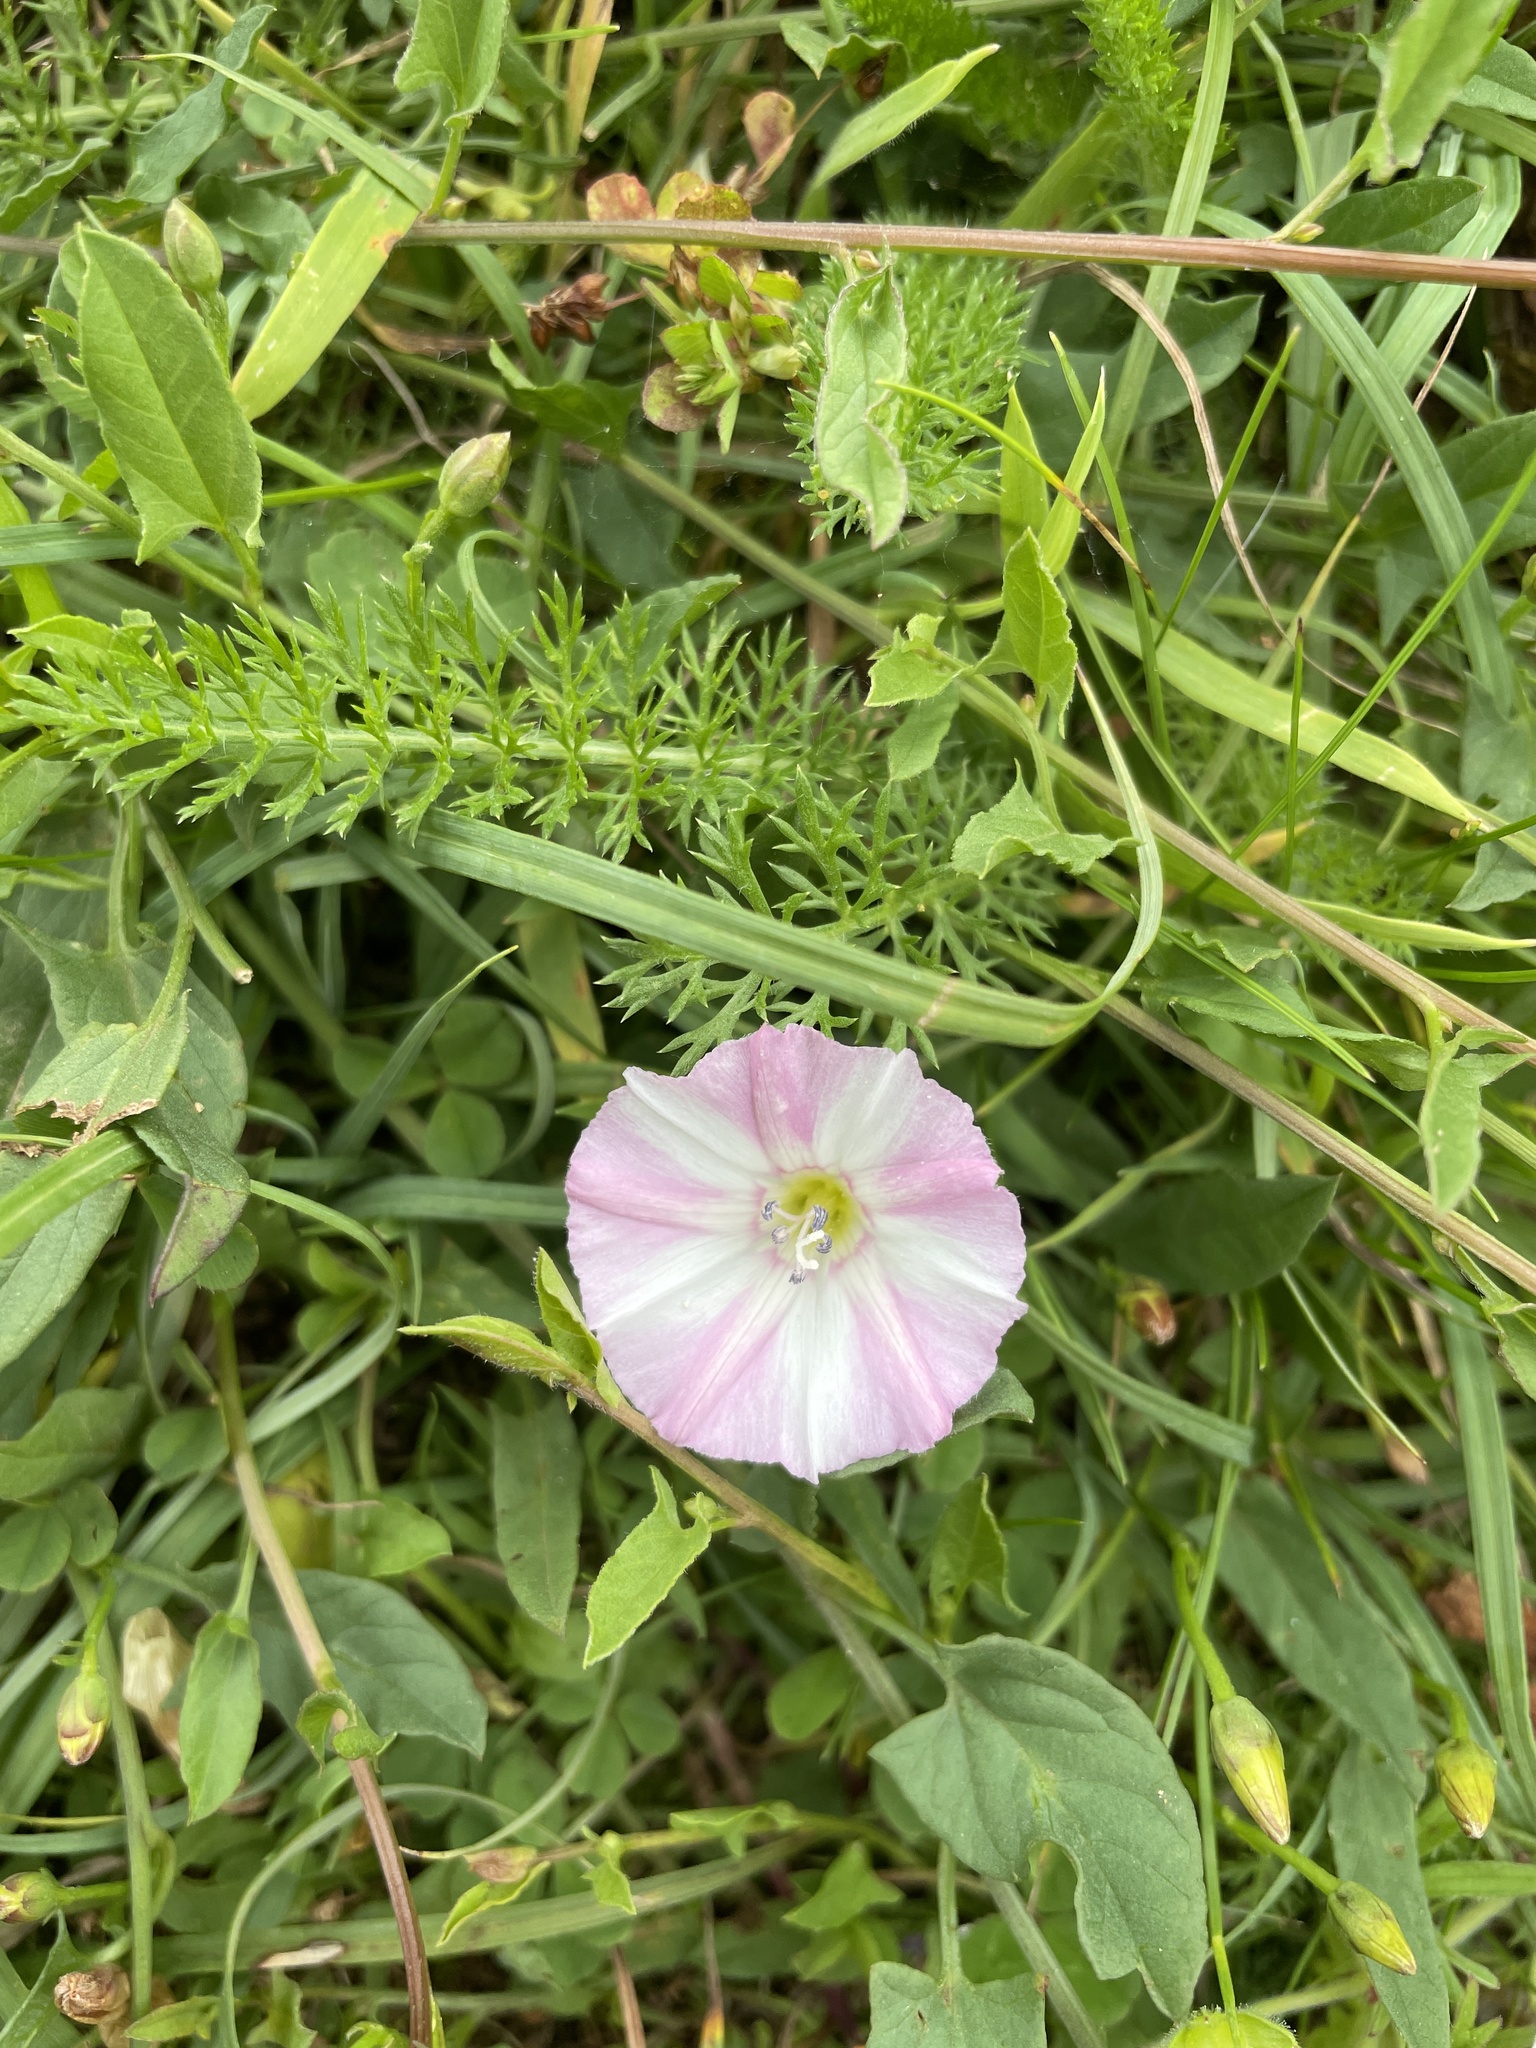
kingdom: Plantae
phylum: Tracheophyta
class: Magnoliopsida
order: Solanales
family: Convolvulaceae
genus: Convolvulus
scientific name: Convolvulus arvensis
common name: Field bindweed
